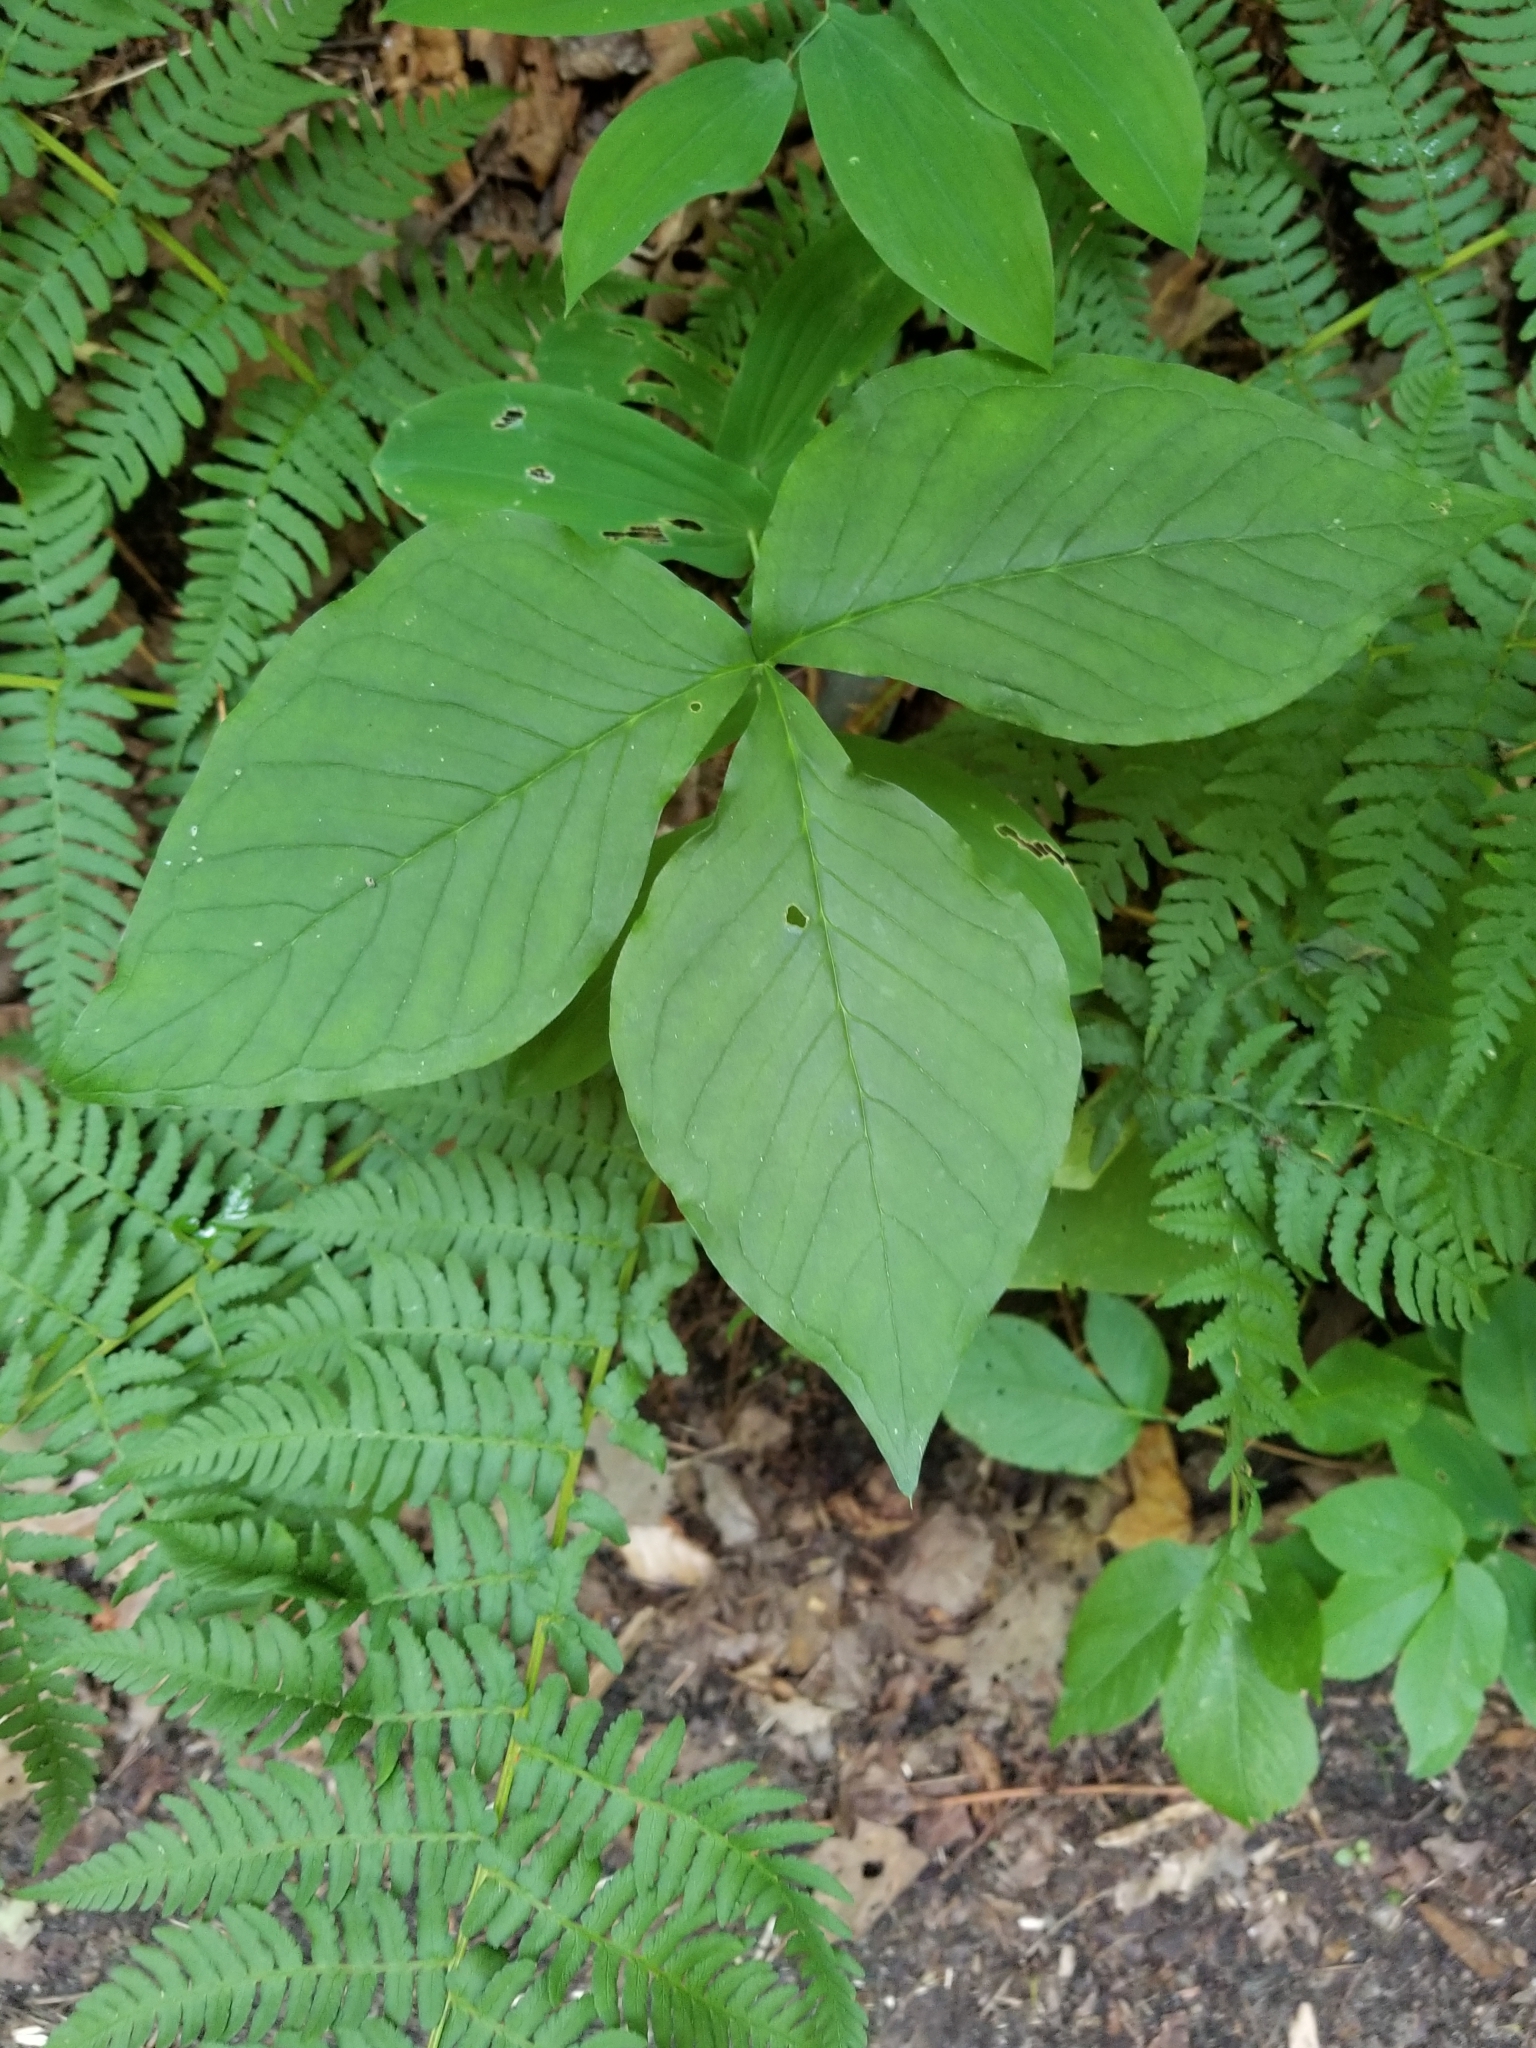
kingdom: Plantae
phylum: Tracheophyta
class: Liliopsida
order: Alismatales
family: Araceae
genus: Arisaema
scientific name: Arisaema triphyllum
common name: Jack-in-the-pulpit
